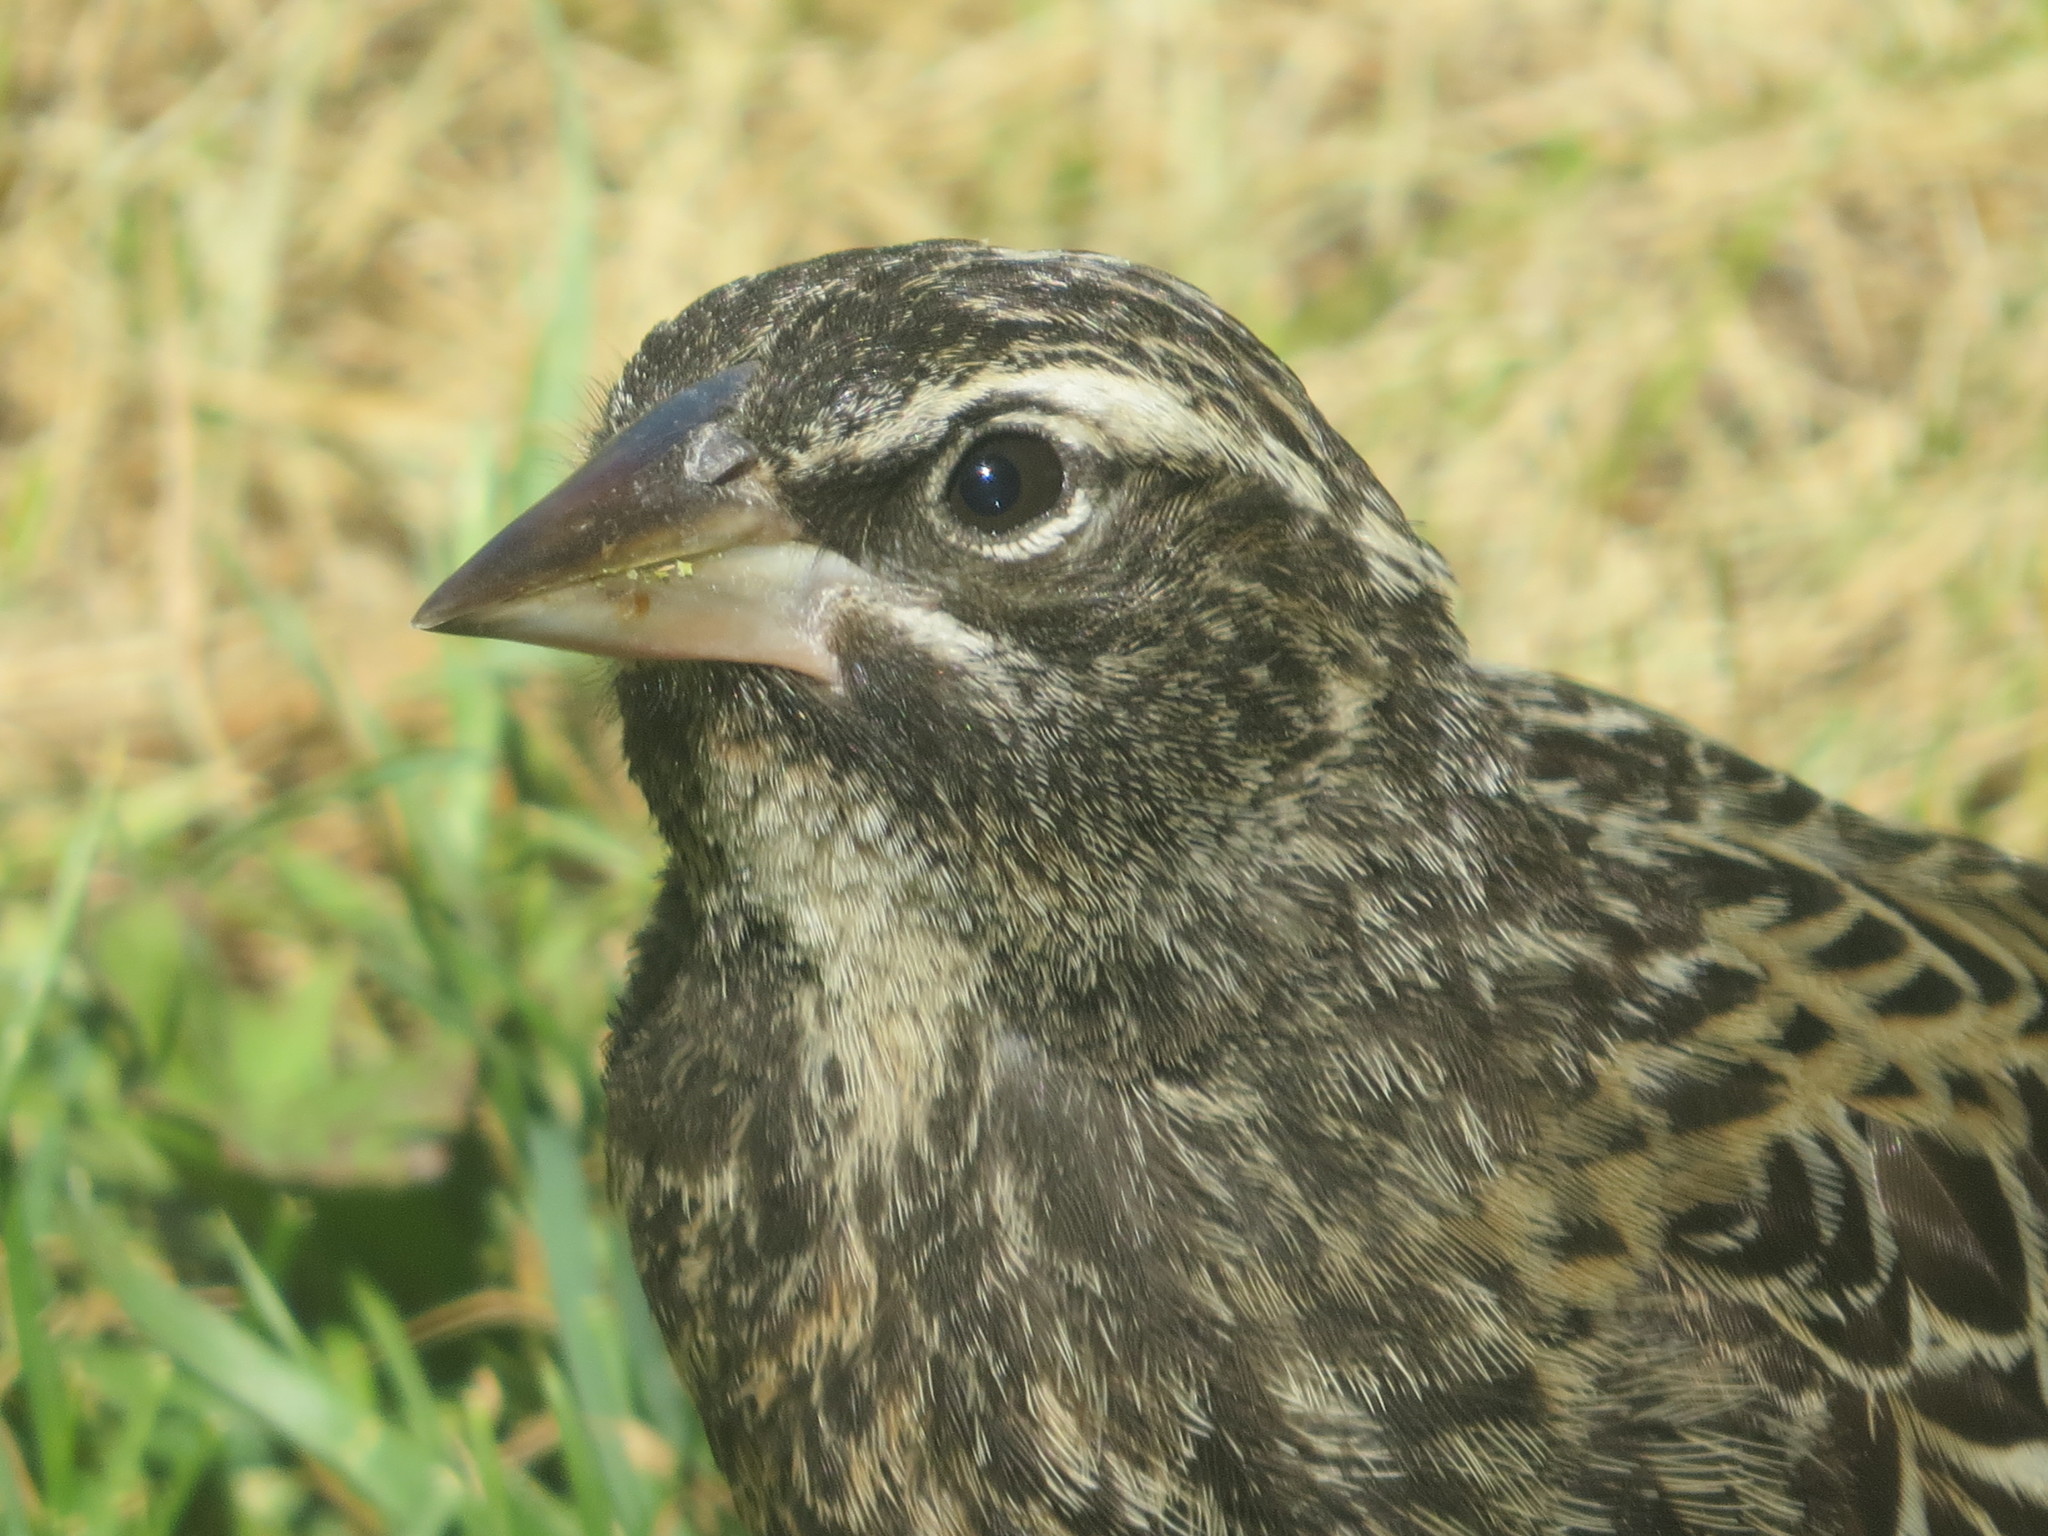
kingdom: Animalia
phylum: Chordata
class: Aves
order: Passeriformes
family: Icteridae
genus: Sturnella
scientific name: Sturnella loyca
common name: Long-tailed meadowlark
